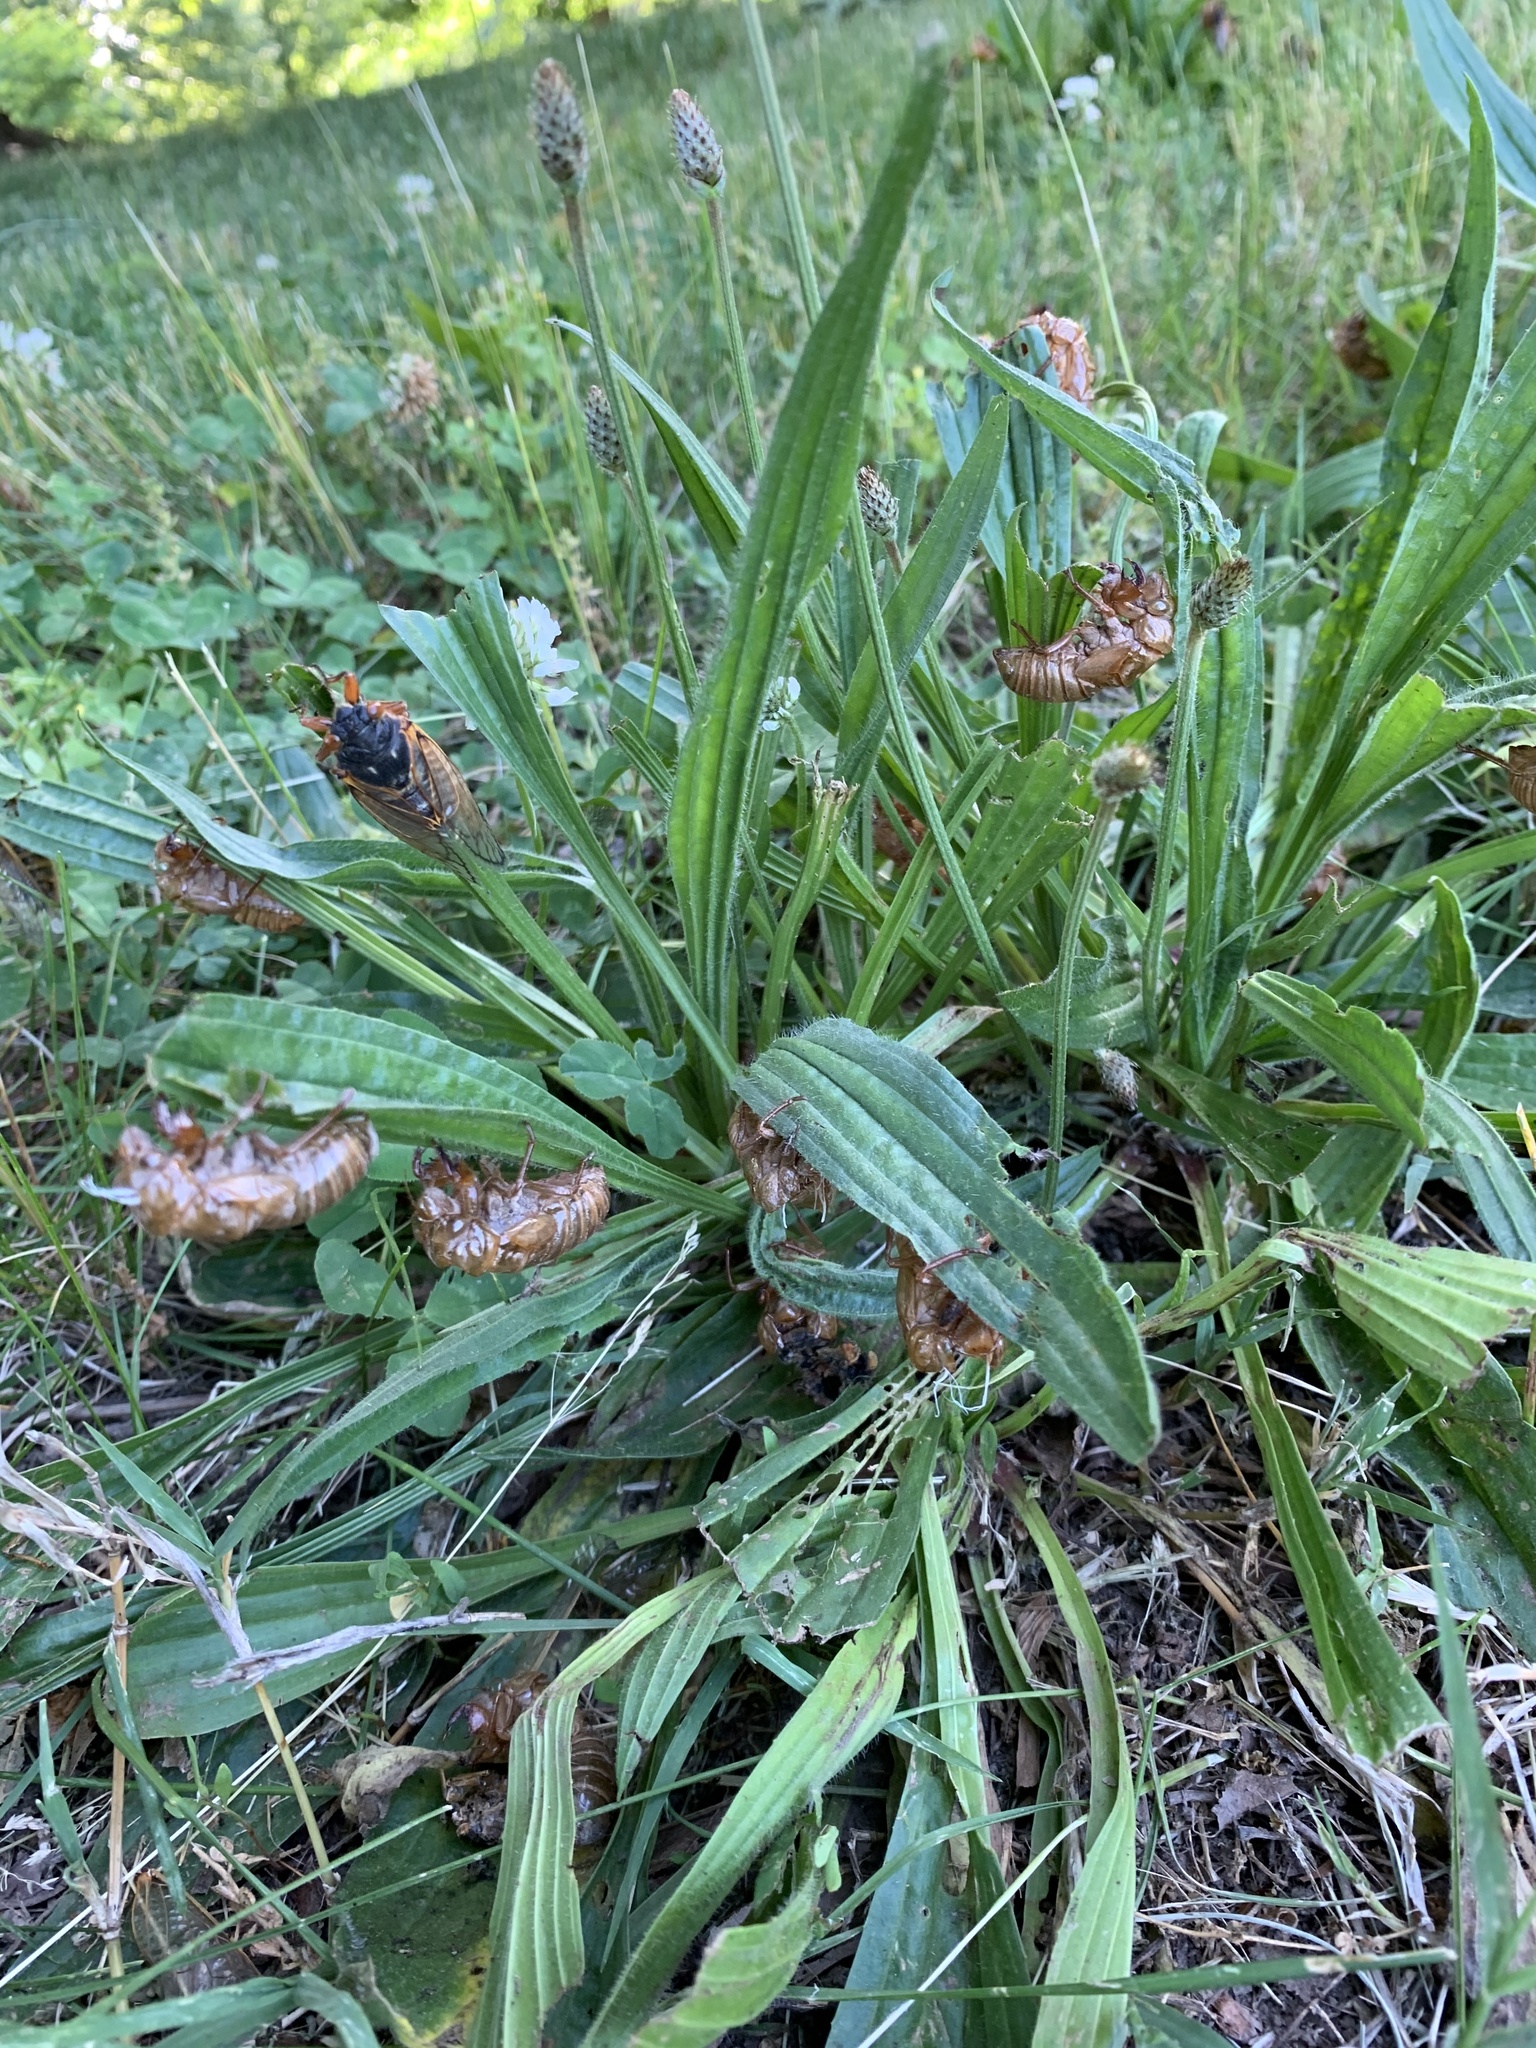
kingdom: Plantae
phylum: Tracheophyta
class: Magnoliopsida
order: Lamiales
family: Plantaginaceae
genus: Plantago
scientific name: Plantago lanceolata
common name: Ribwort plantain
